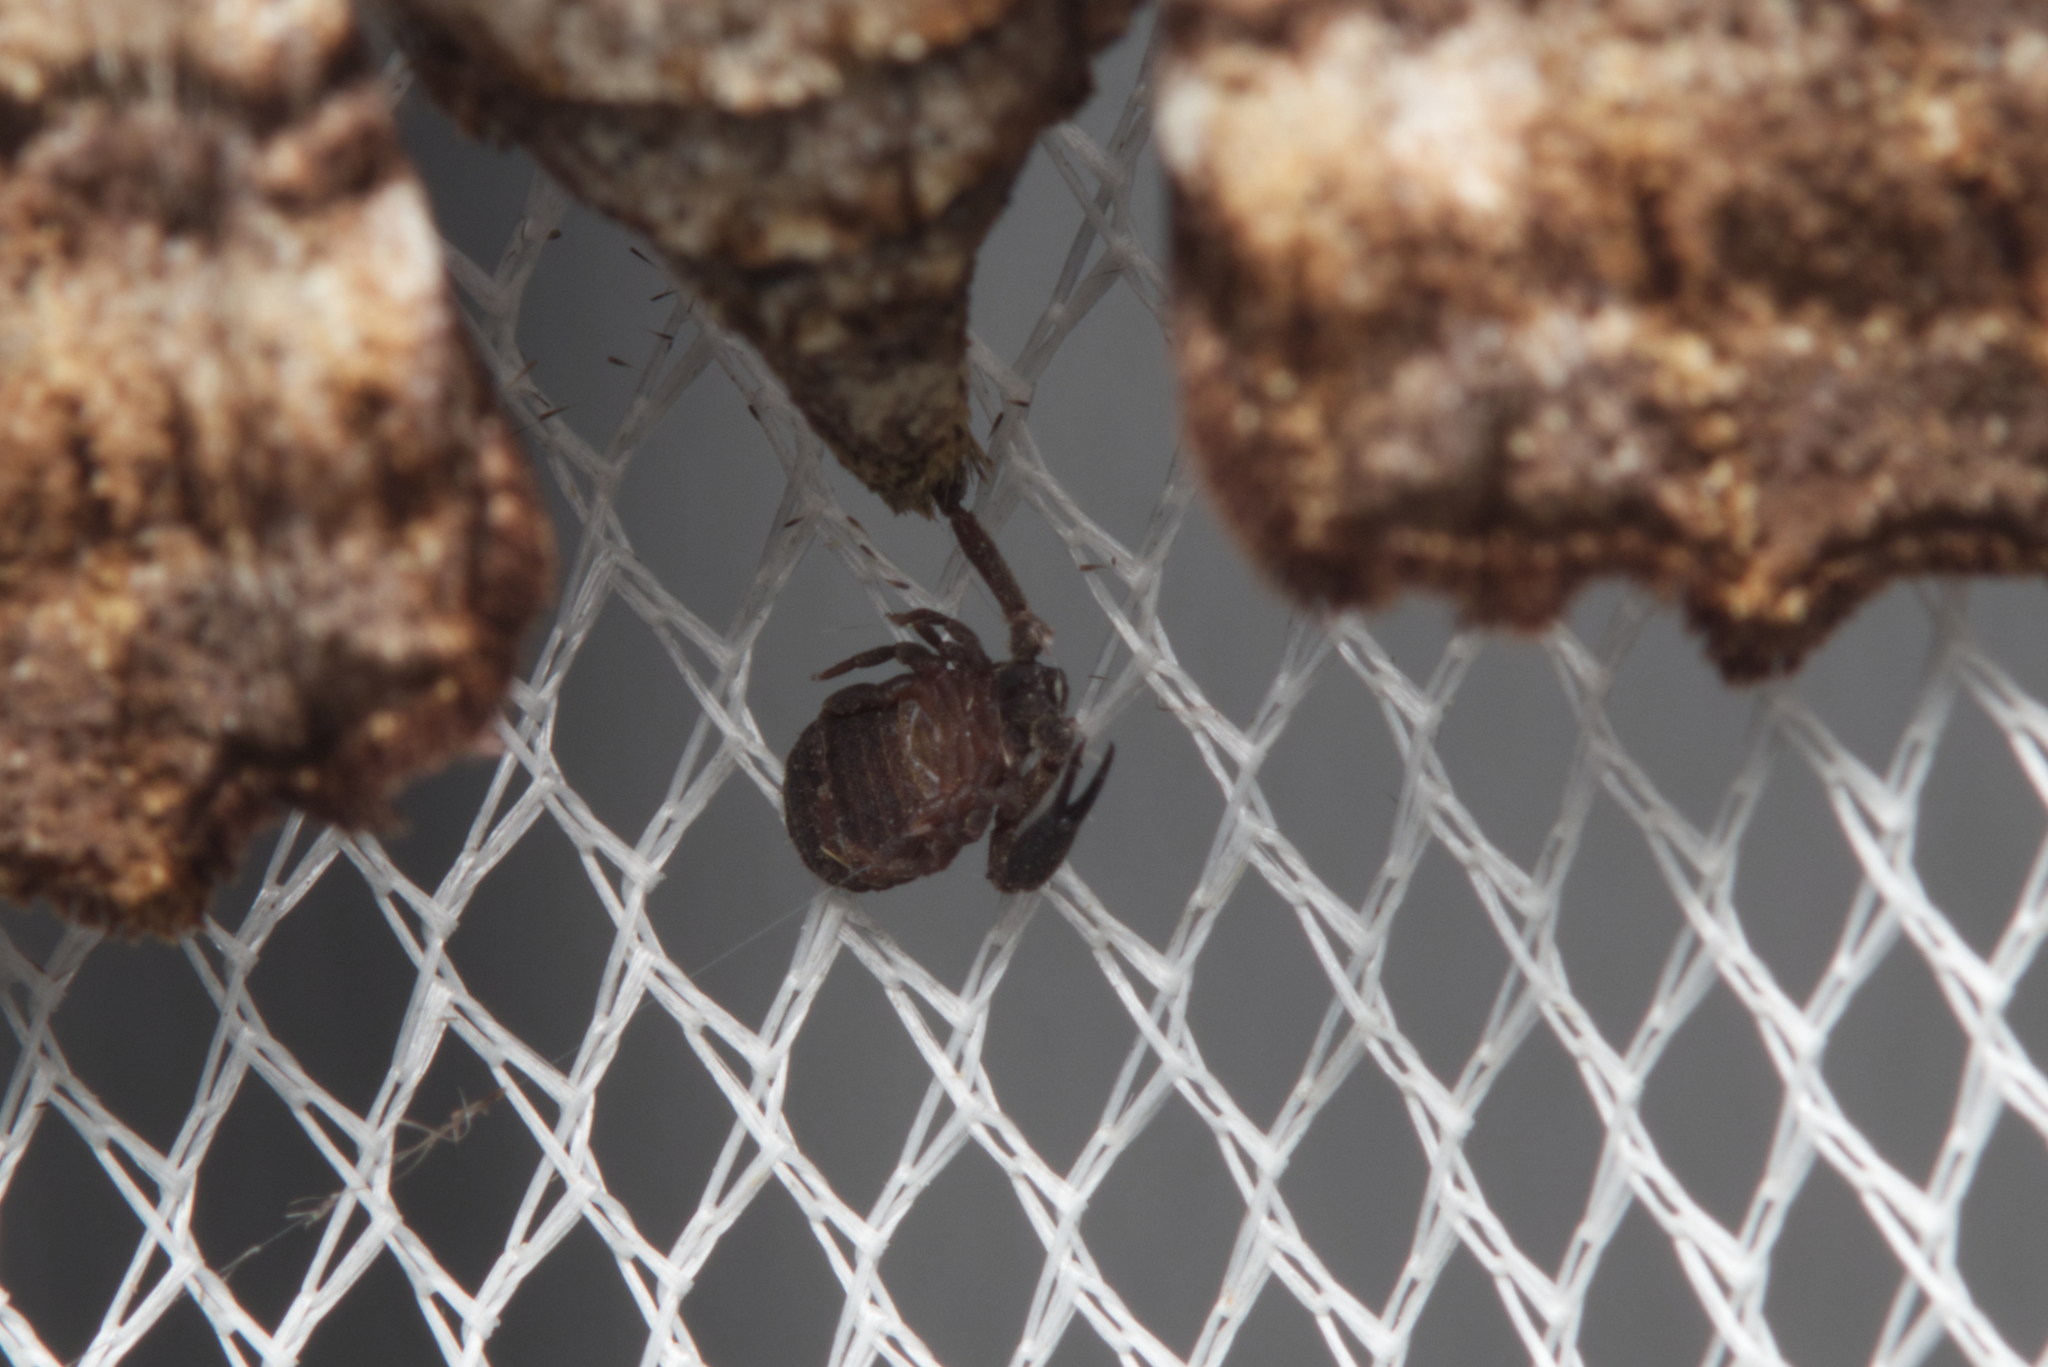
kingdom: Animalia
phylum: Arthropoda
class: Insecta
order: Lepidoptera
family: Geometridae
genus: Pholodes
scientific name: Pholodes sinistraria
